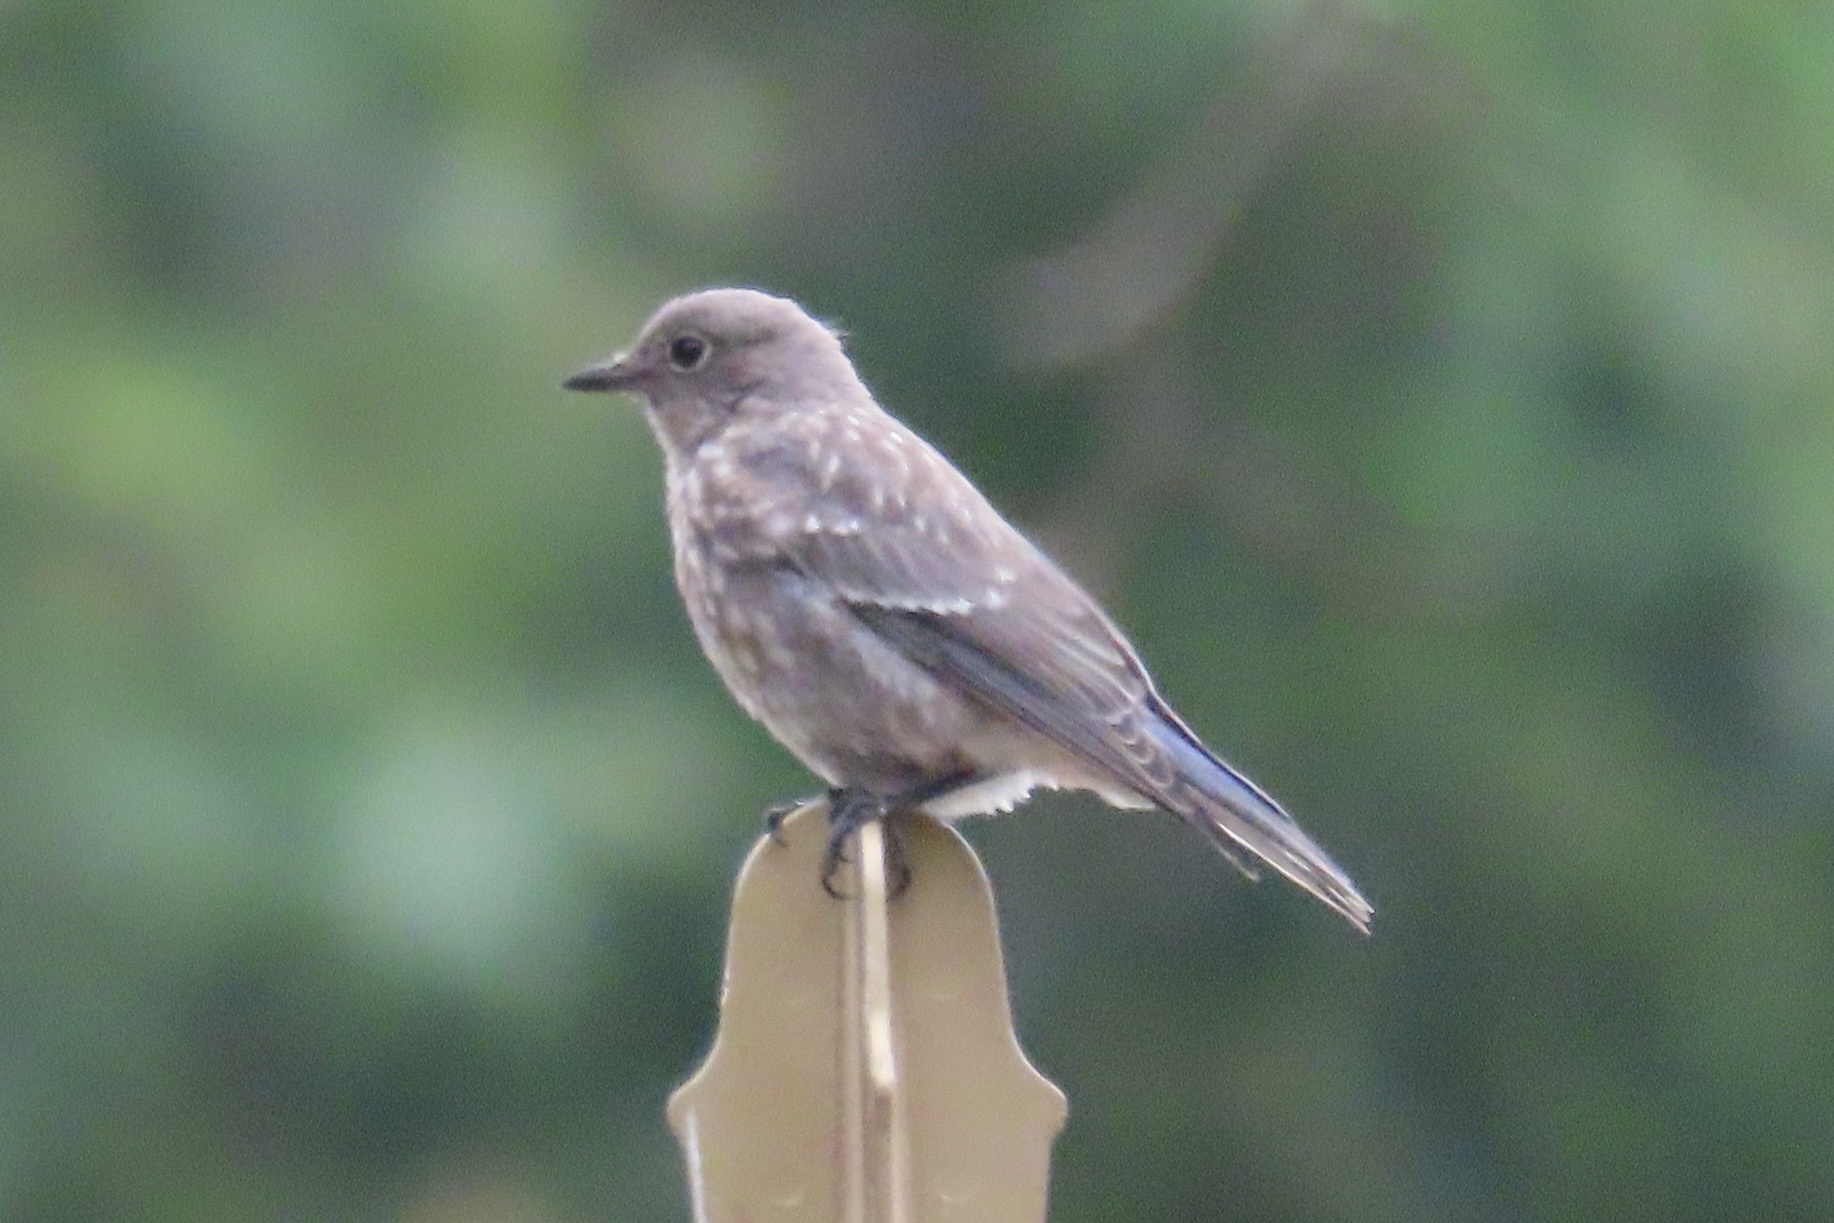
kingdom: Animalia
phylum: Chordata
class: Aves
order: Passeriformes
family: Turdidae
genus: Sialia
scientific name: Sialia mexicana
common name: Western bluebird
